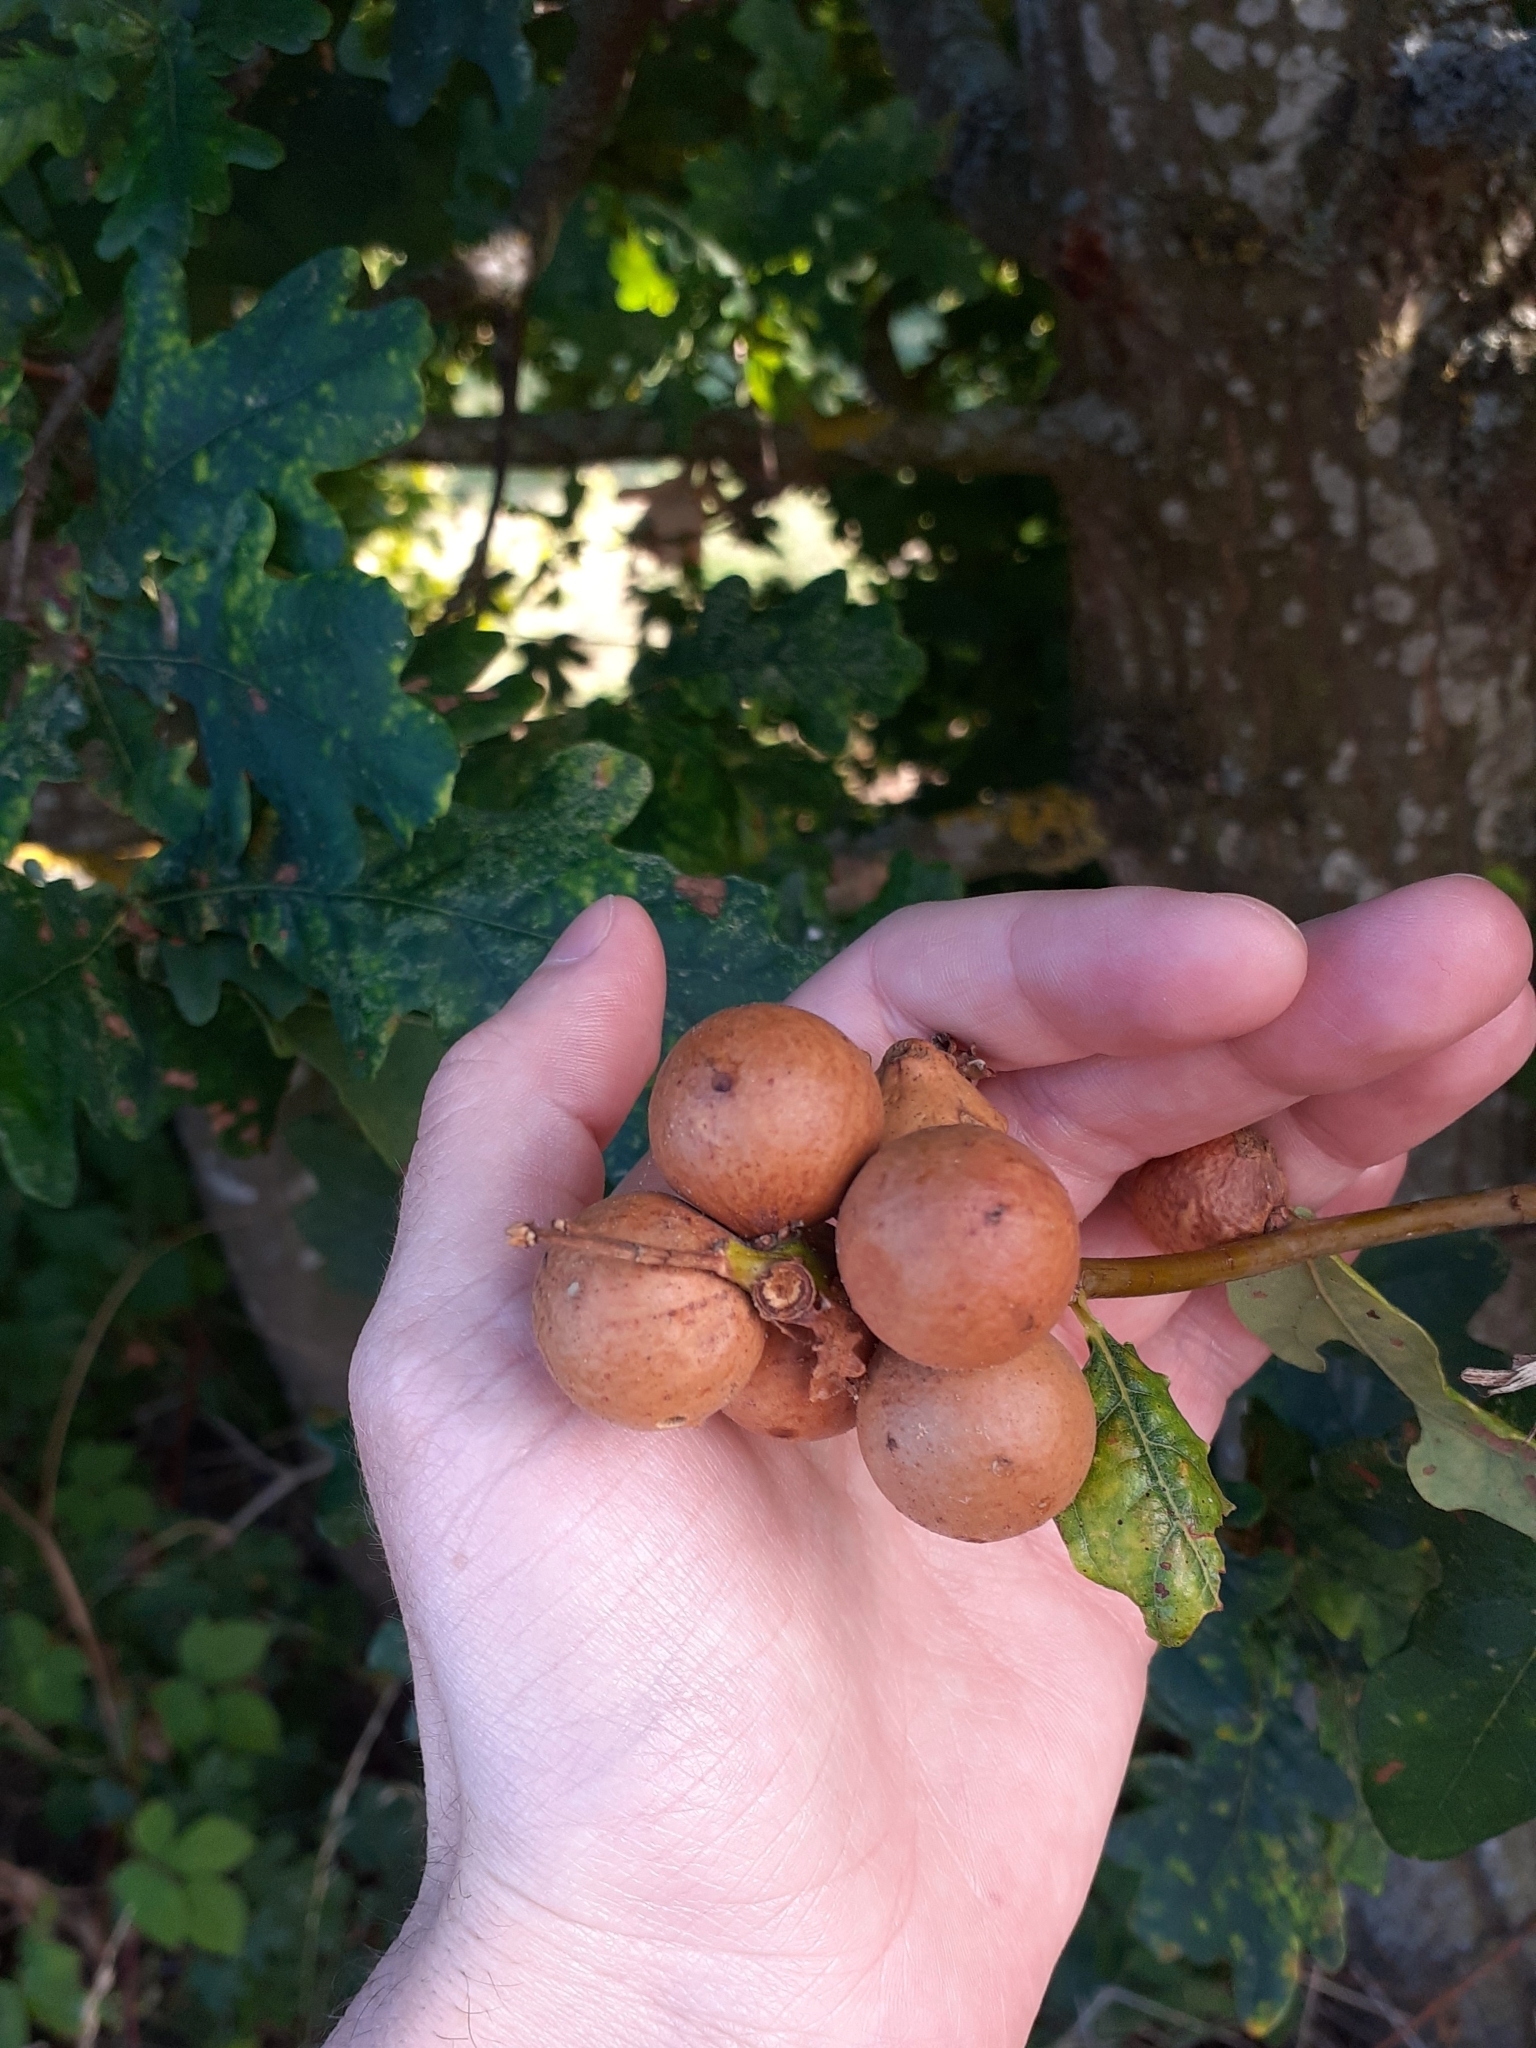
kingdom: Animalia
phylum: Arthropoda
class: Insecta
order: Hymenoptera
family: Cynipidae
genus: Andricus
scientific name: Andricus kollari
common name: Marble gall
